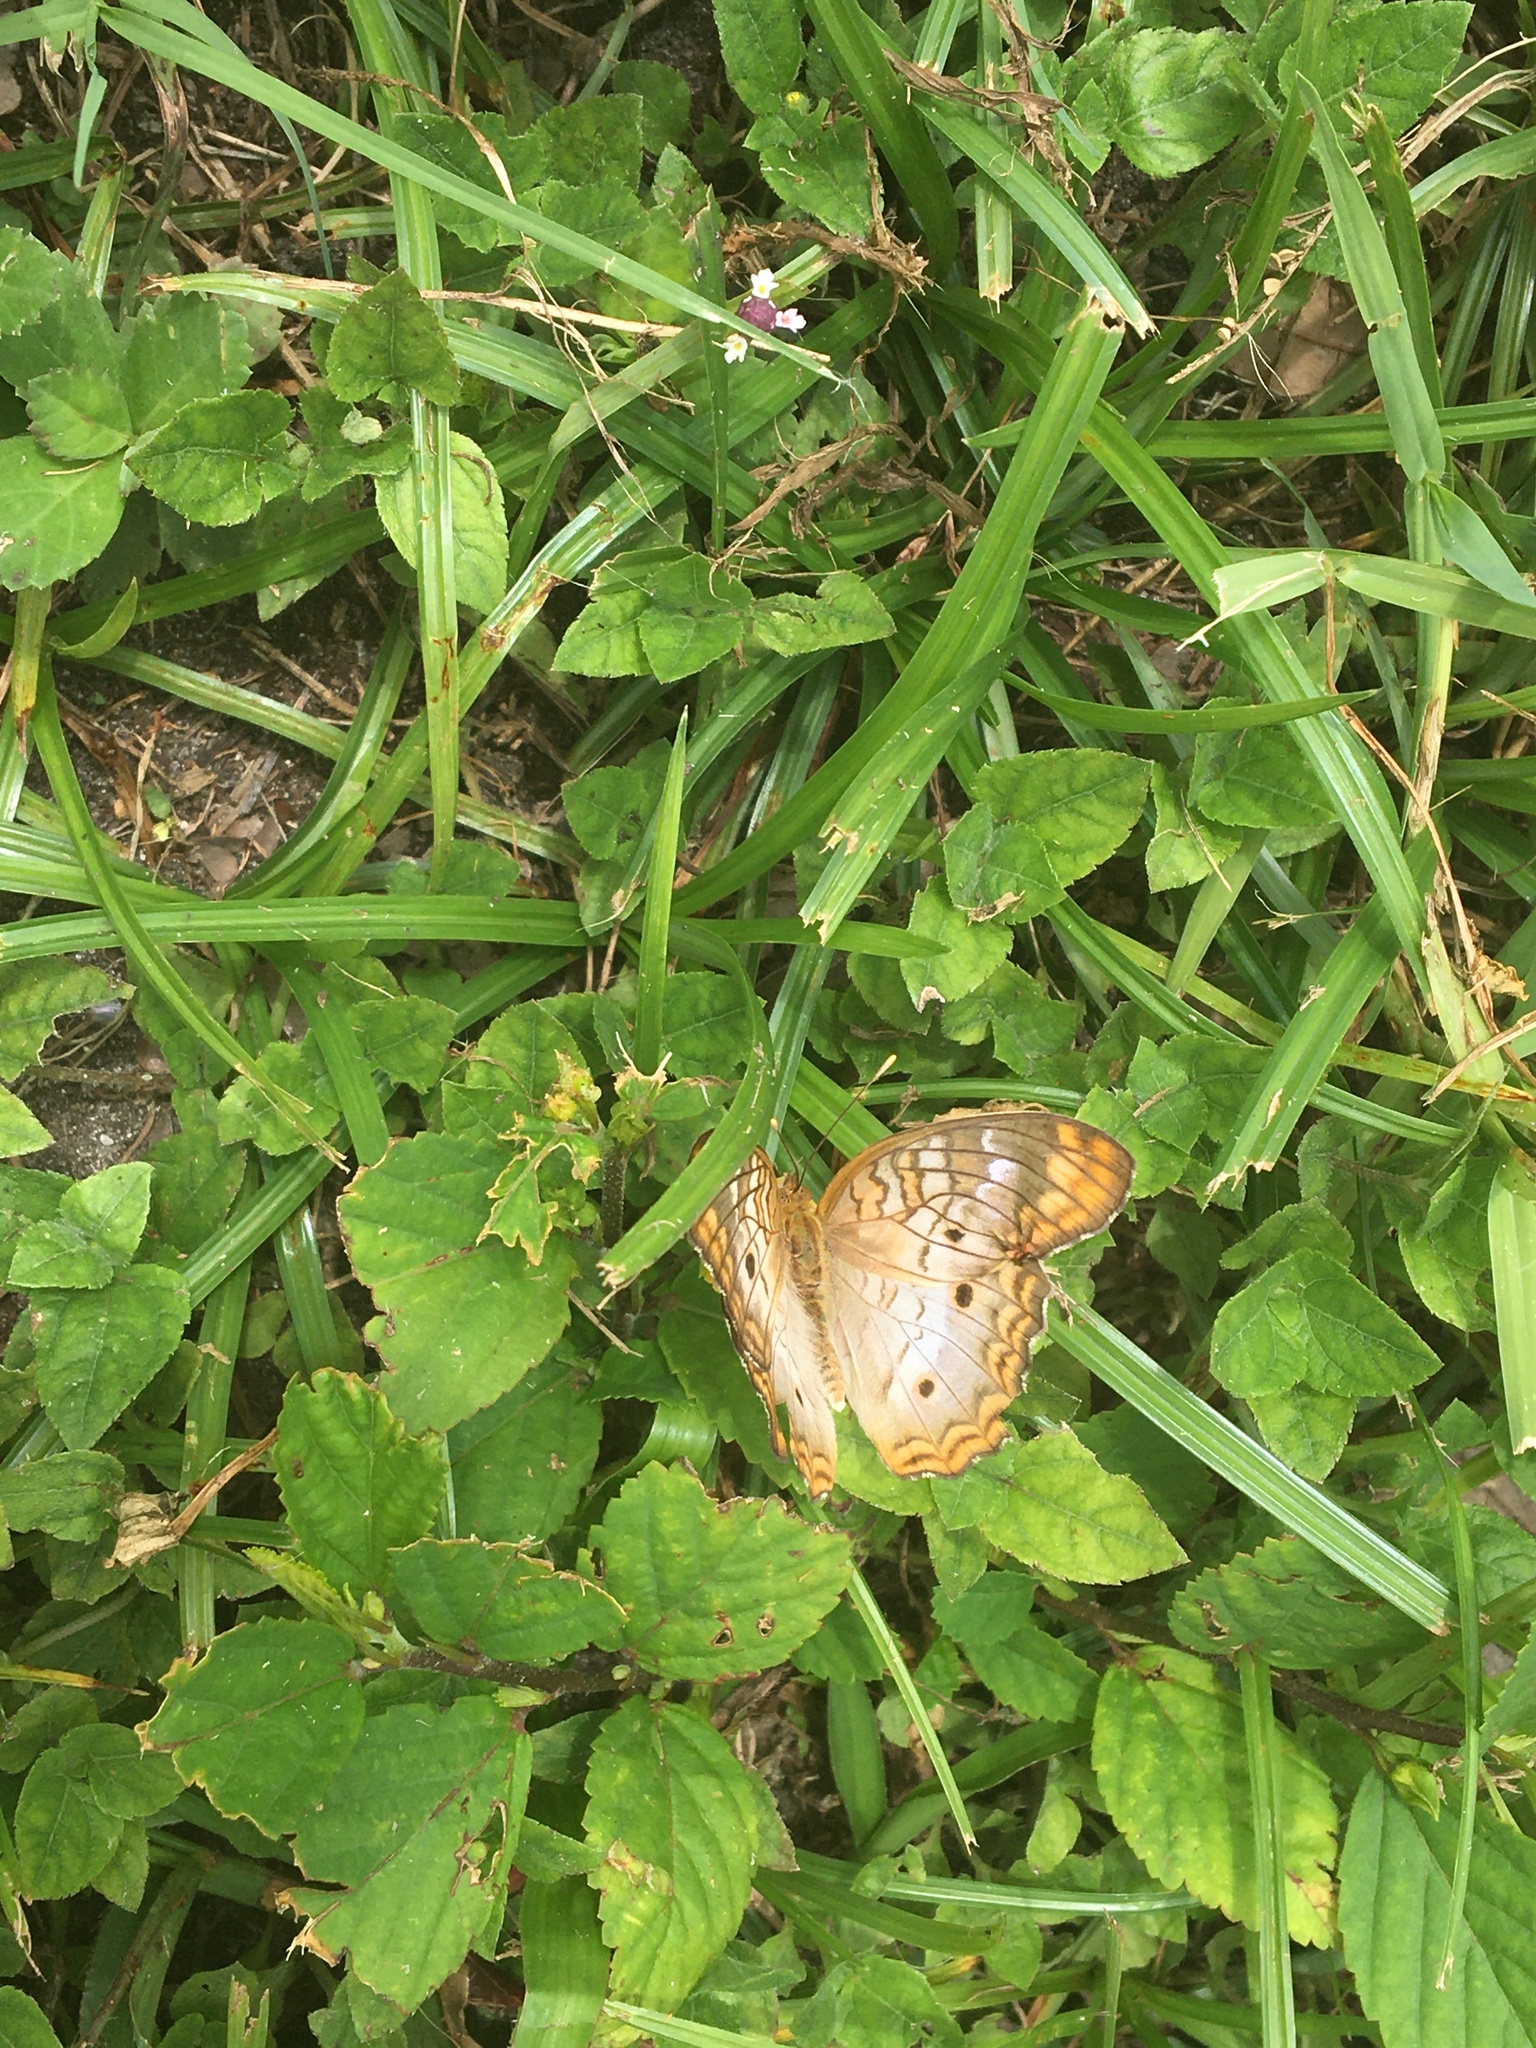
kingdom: Animalia
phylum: Arthropoda
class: Insecta
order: Lepidoptera
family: Nymphalidae
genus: Anartia
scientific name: Anartia jatrophae
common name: White peacock
